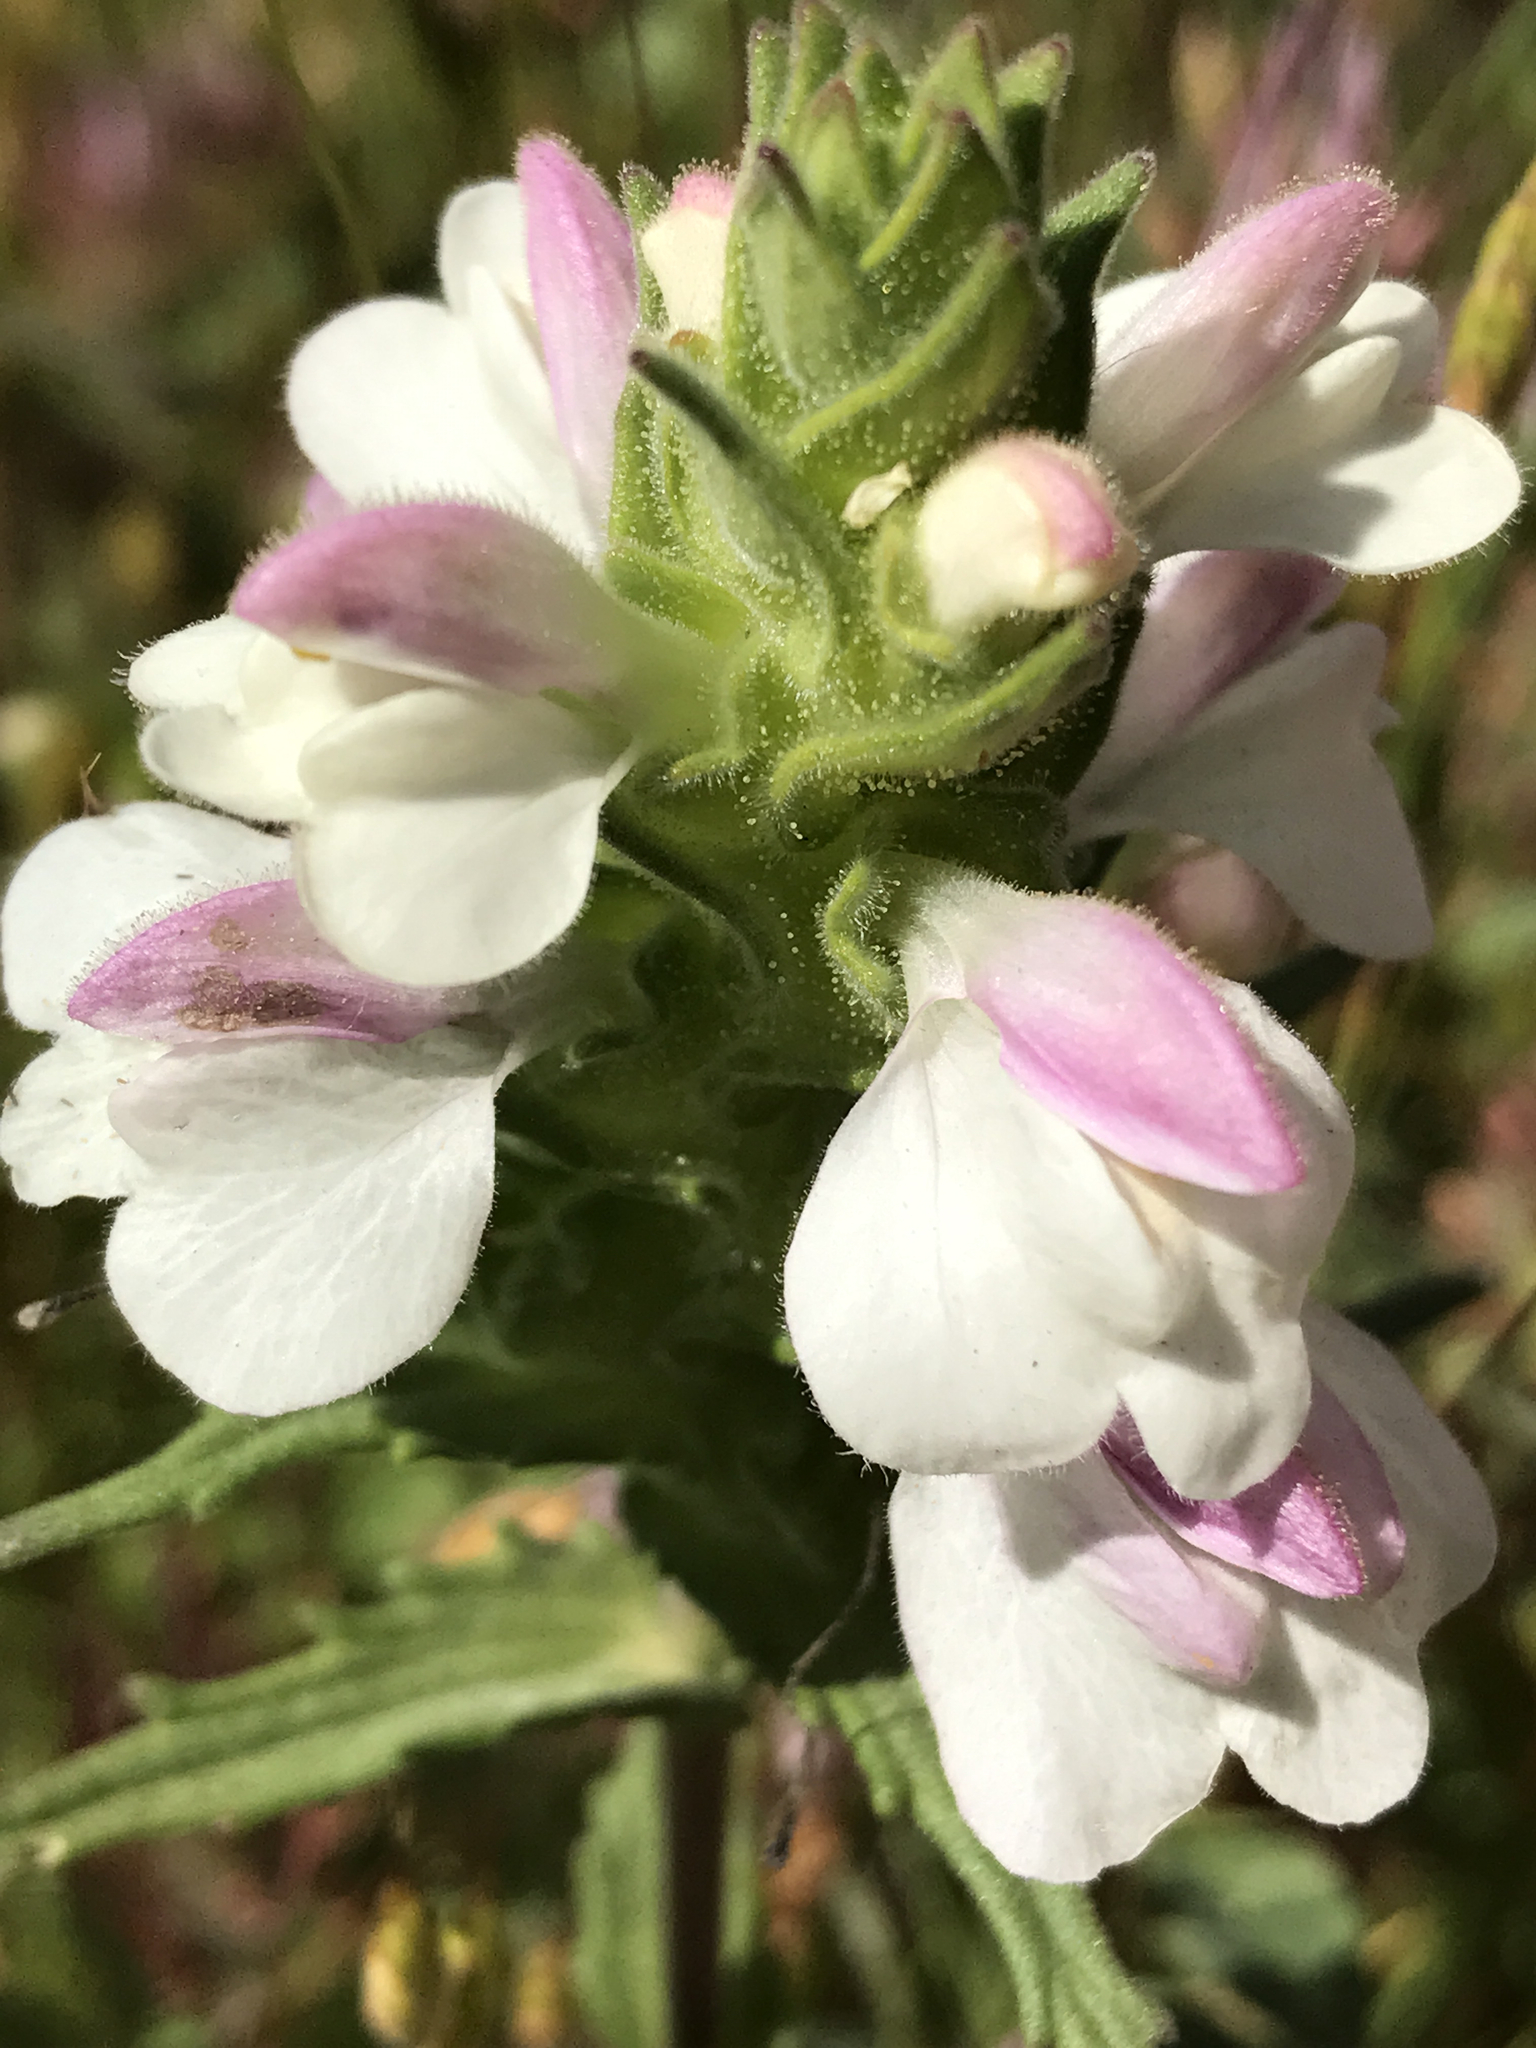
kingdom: Plantae
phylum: Tracheophyta
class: Magnoliopsida
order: Lamiales
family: Orobanchaceae
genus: Bellardia
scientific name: Bellardia trixago
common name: Mediterranean lineseed
